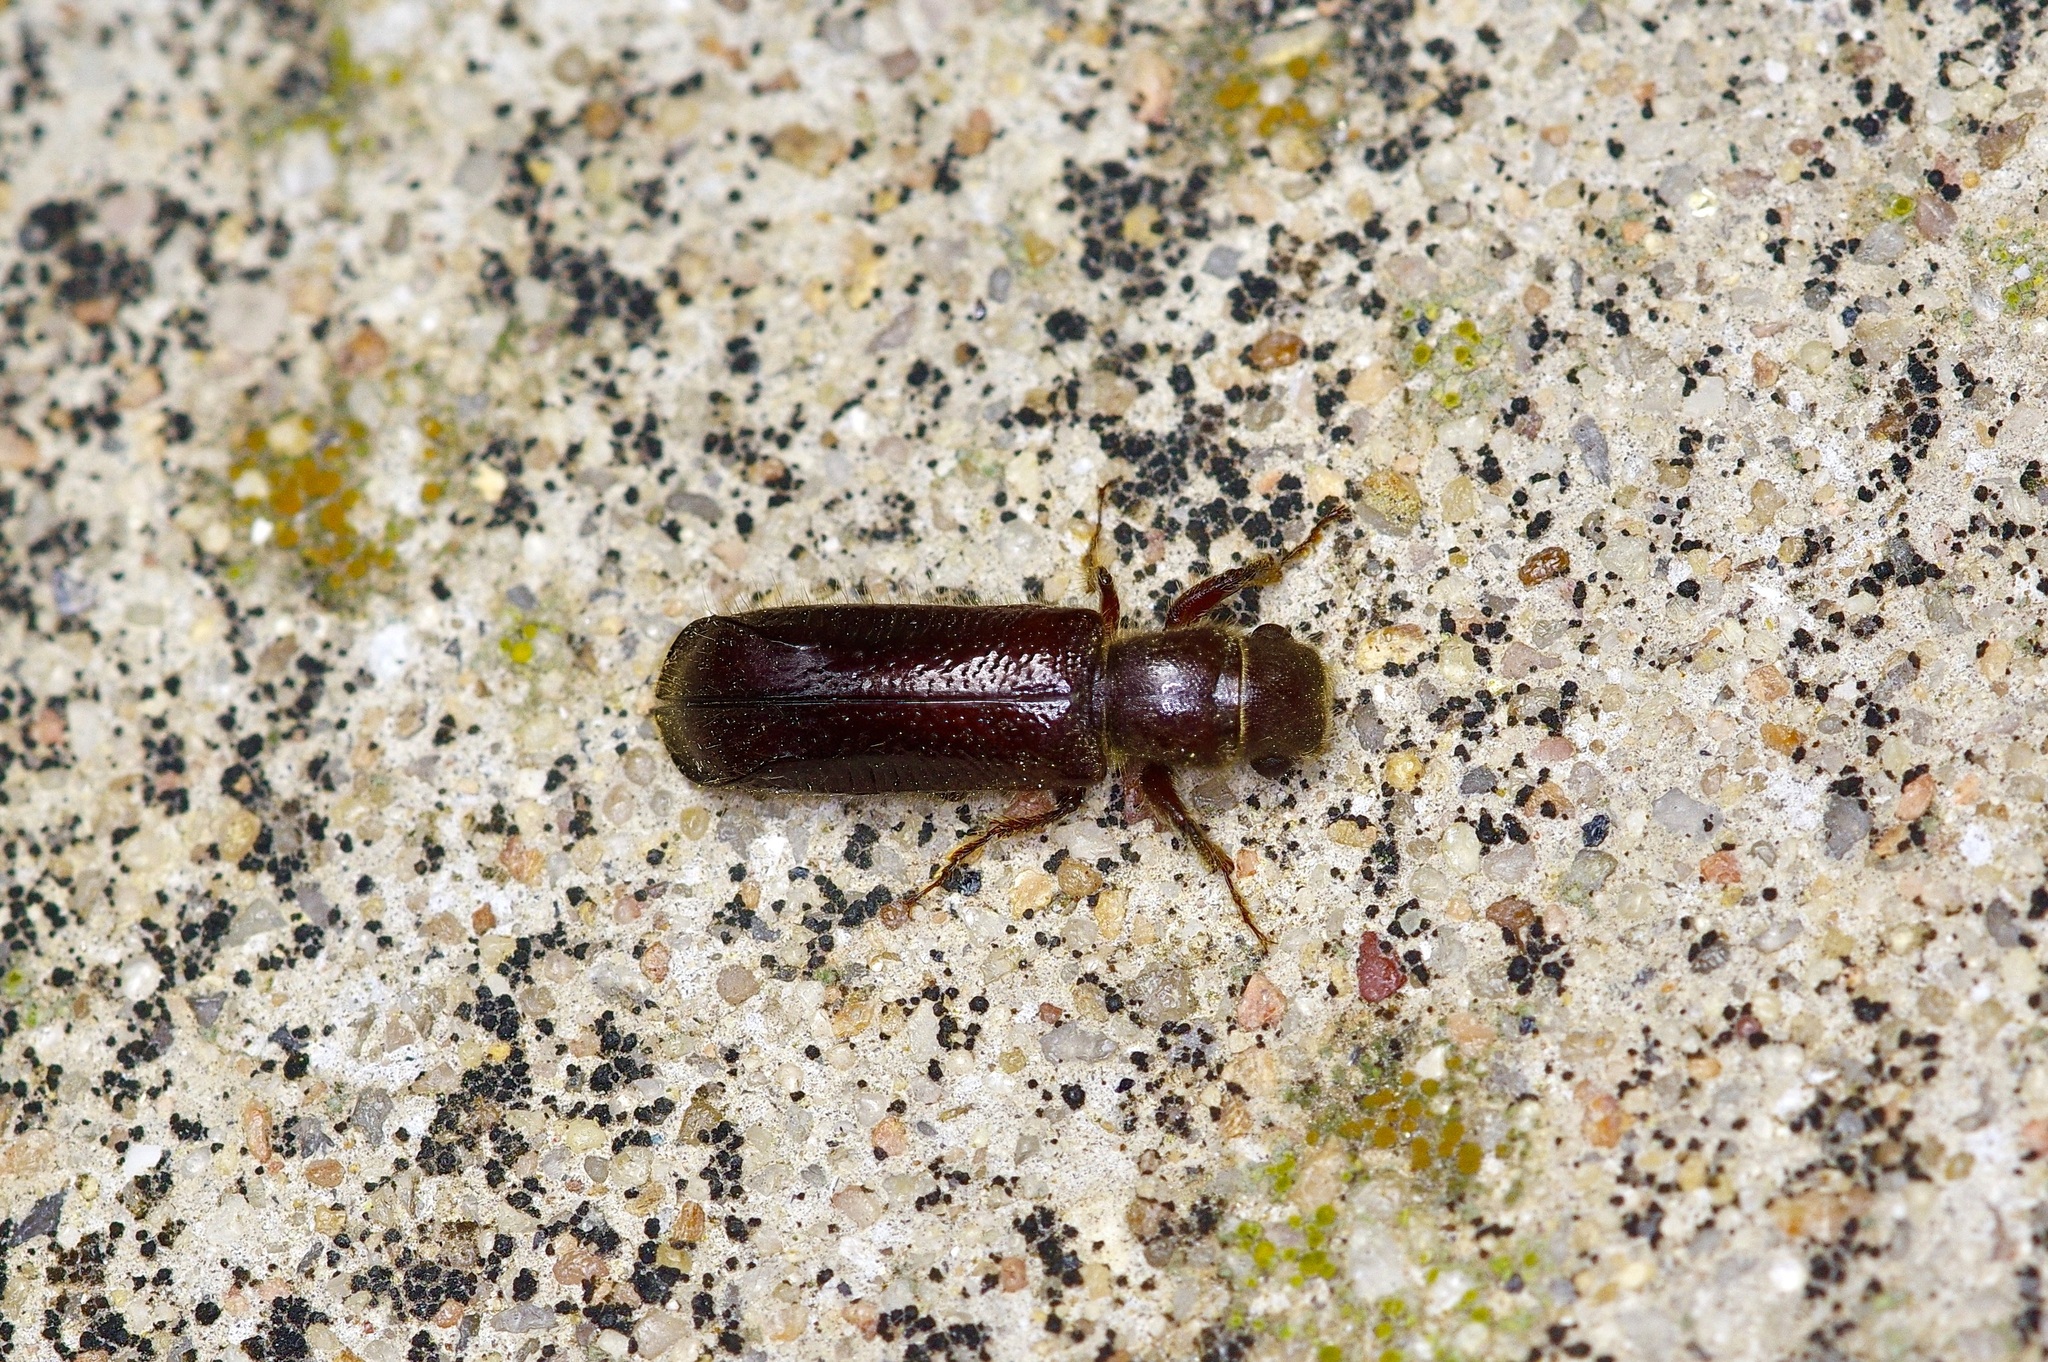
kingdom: Animalia
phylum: Arthropoda
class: Insecta
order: Coleoptera
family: Bostrichidae
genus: Melalgus
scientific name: Melalgus plicatus
